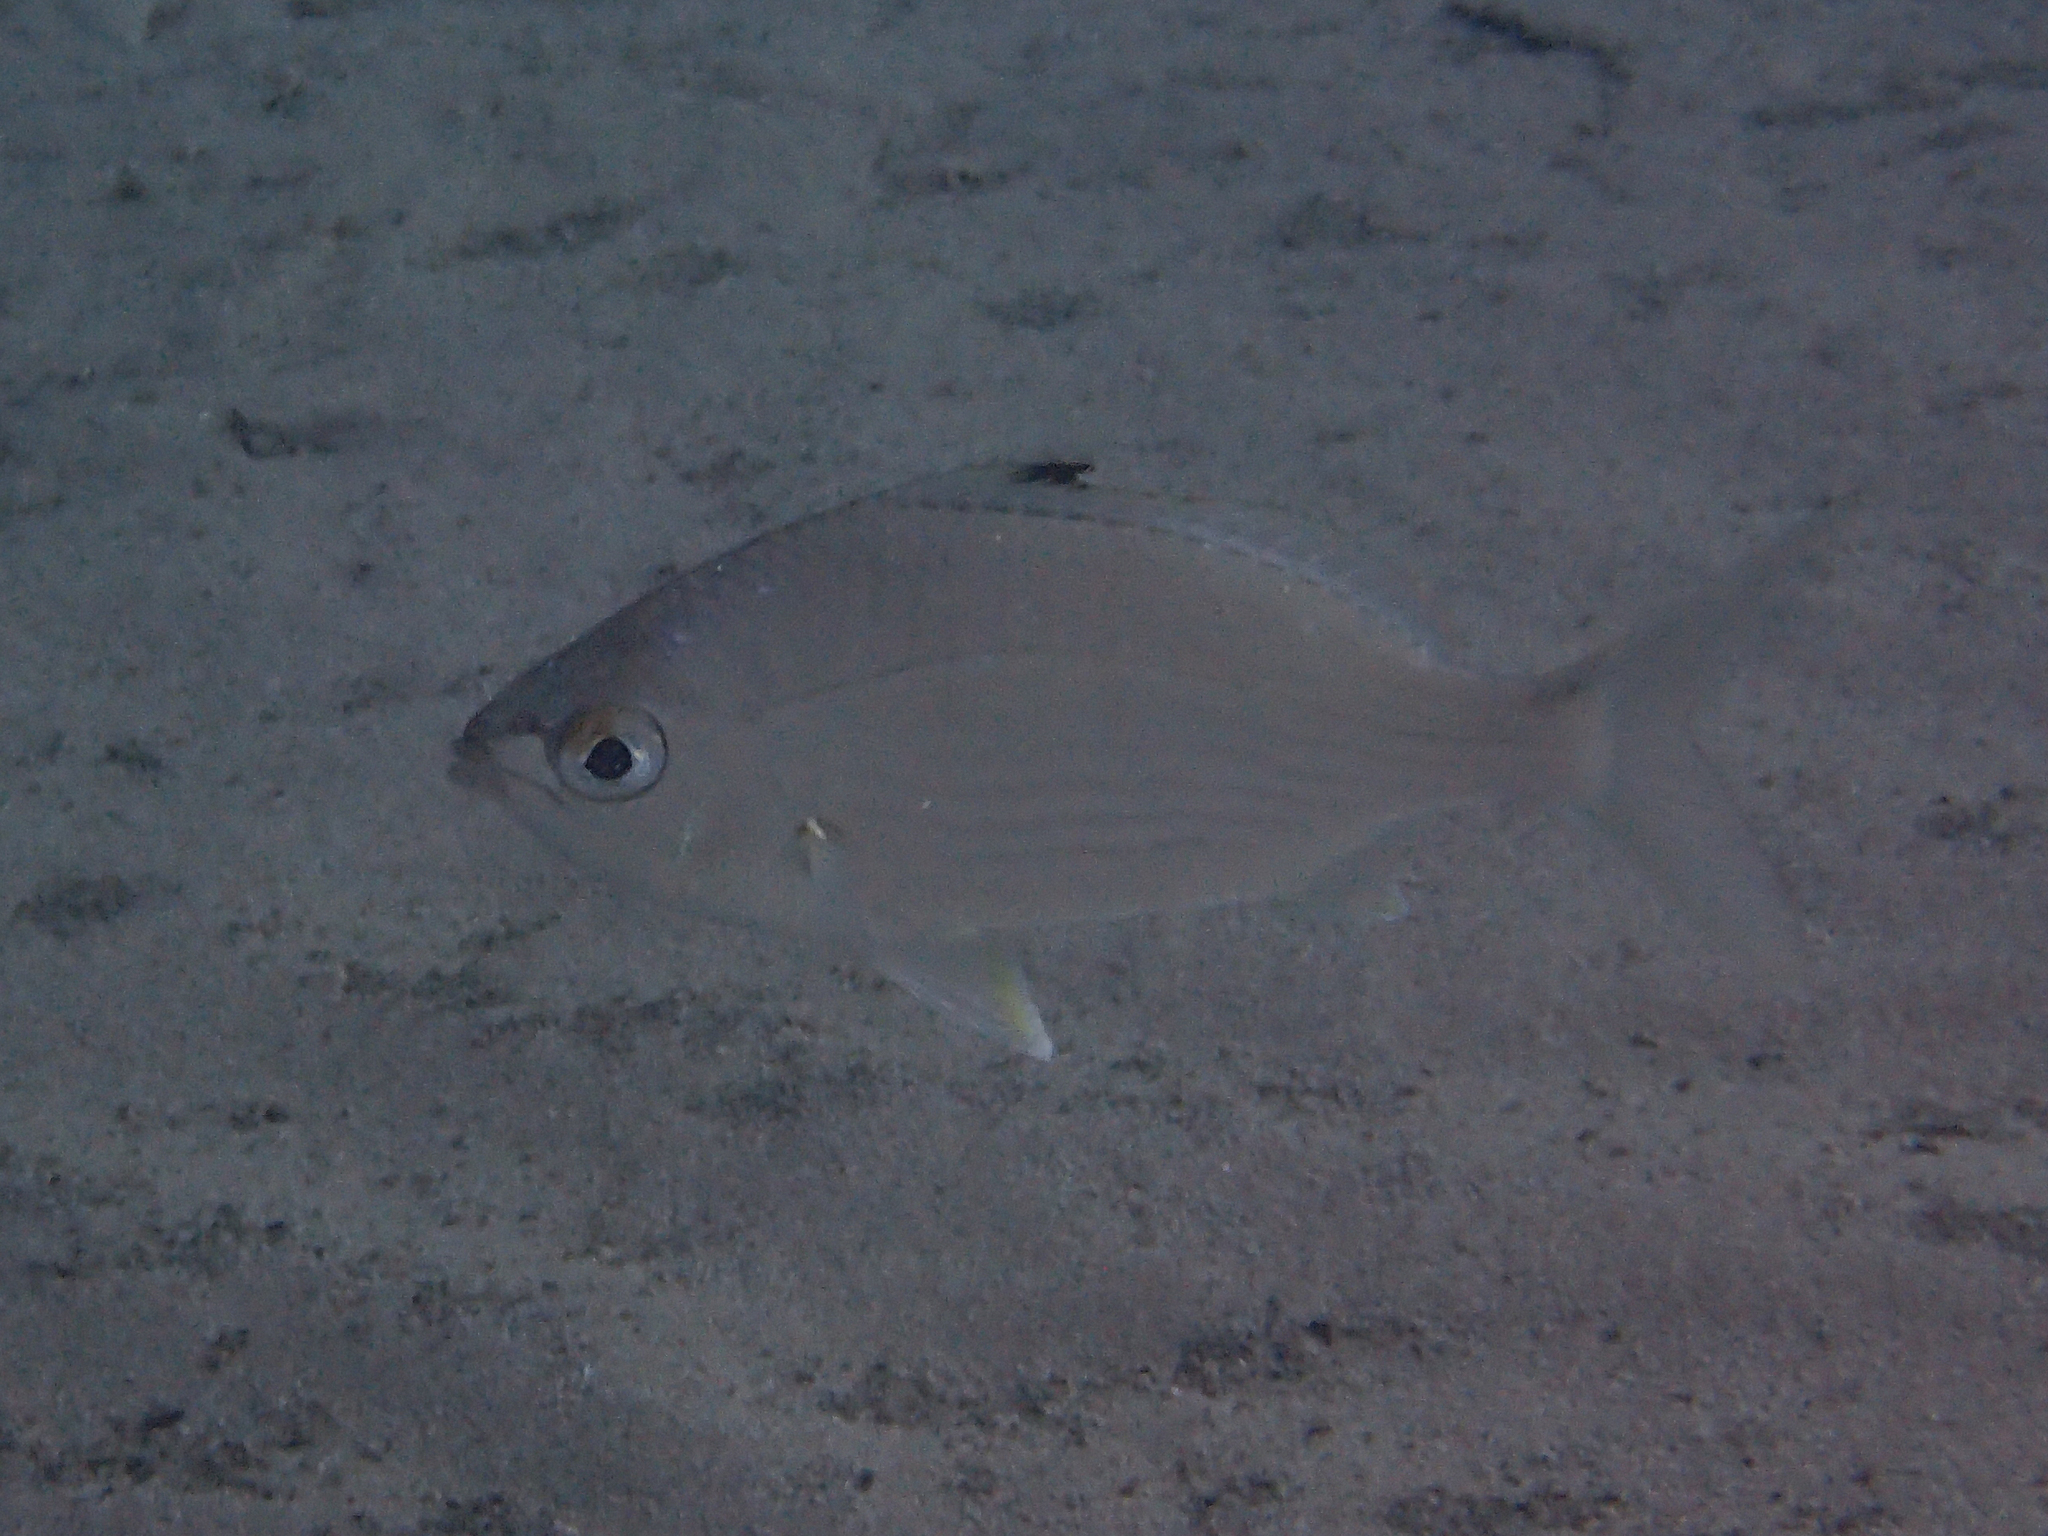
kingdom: Animalia
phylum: Chordata
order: Perciformes
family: Gerreidae
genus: Gerres
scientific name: Gerres subfasciatus
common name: Common silver belly
